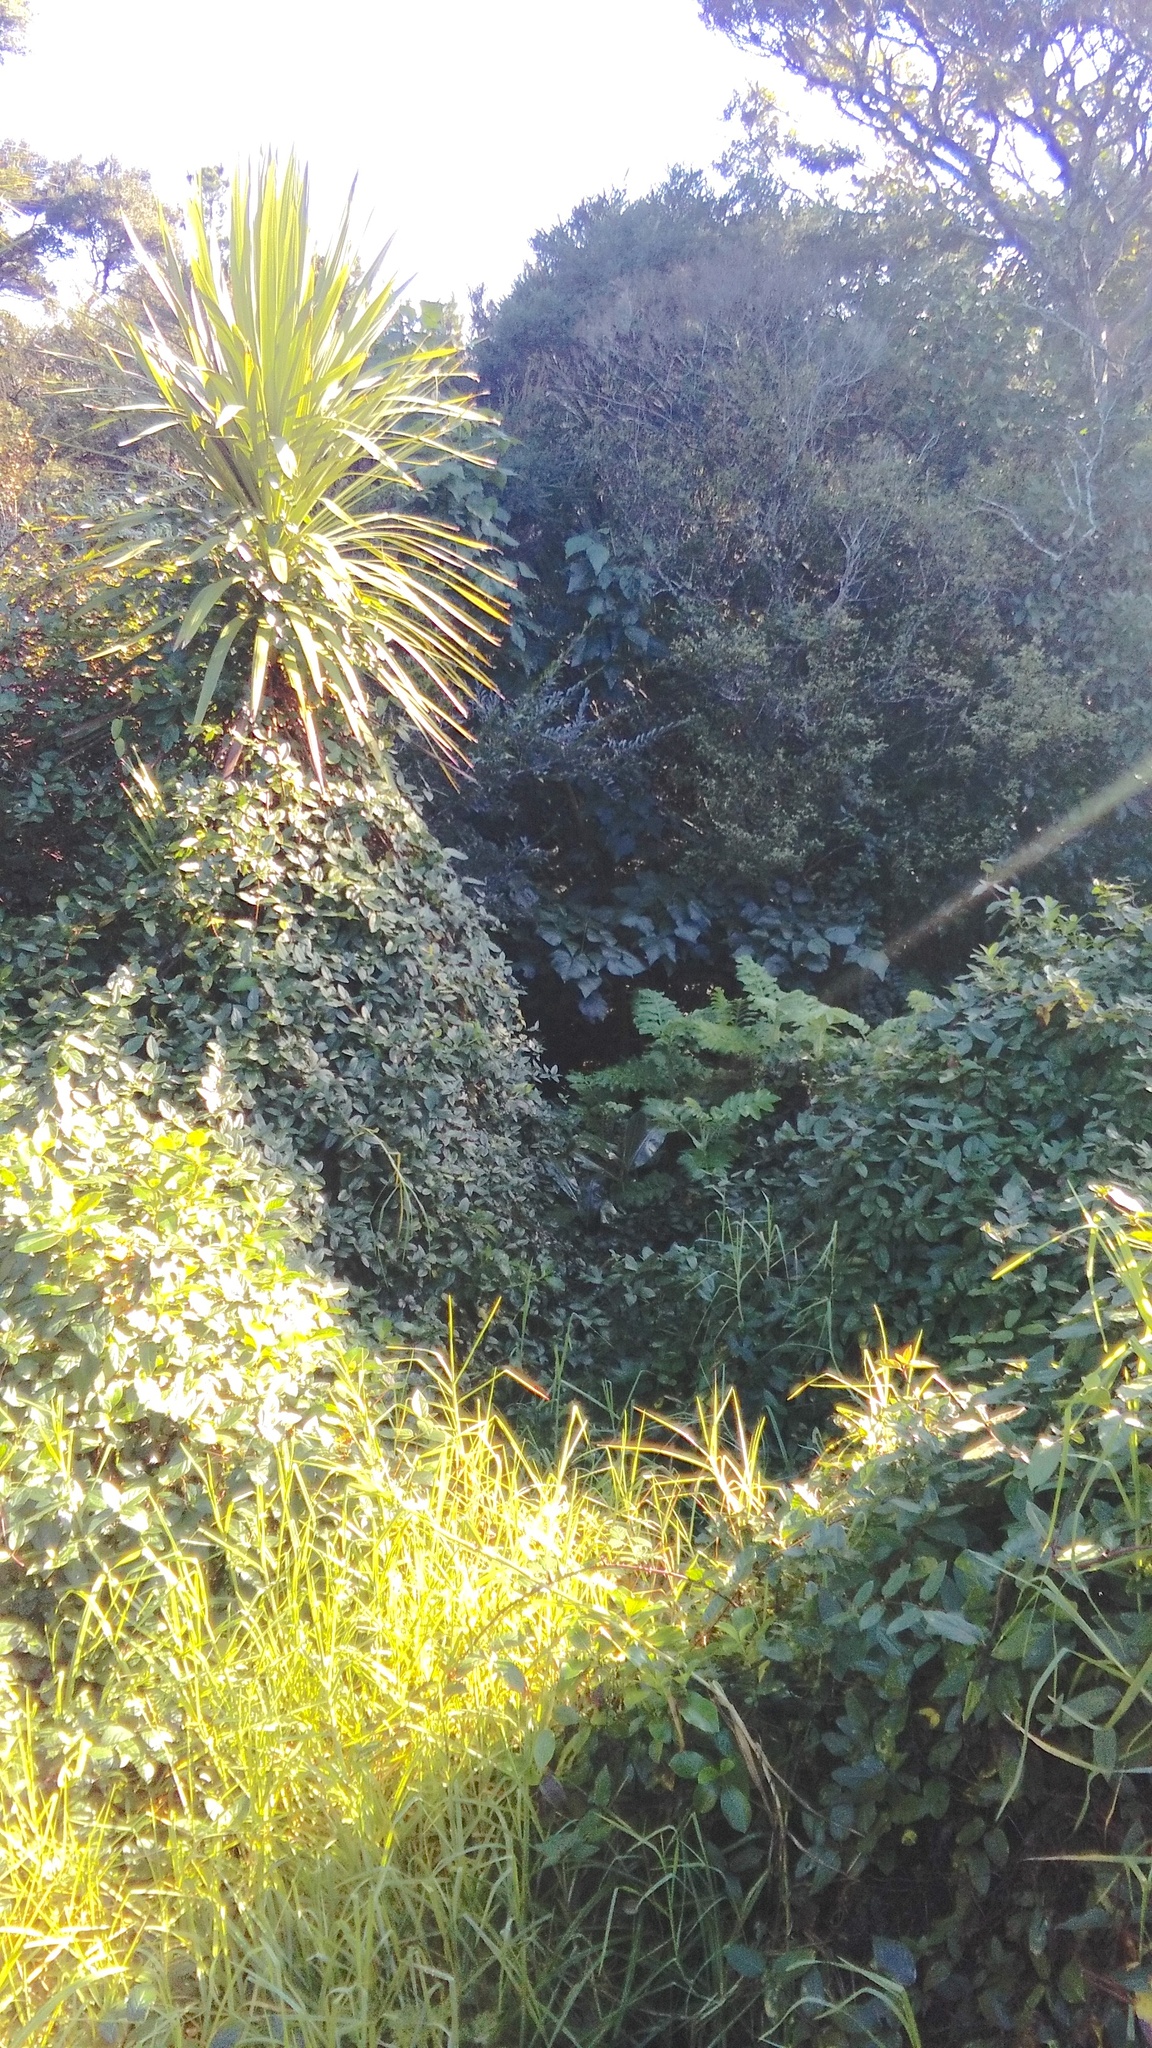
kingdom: Plantae
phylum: Tracheophyta
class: Liliopsida
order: Asparagales
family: Asparagaceae
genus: Cordyline
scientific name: Cordyline australis
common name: Cabbage-palm
